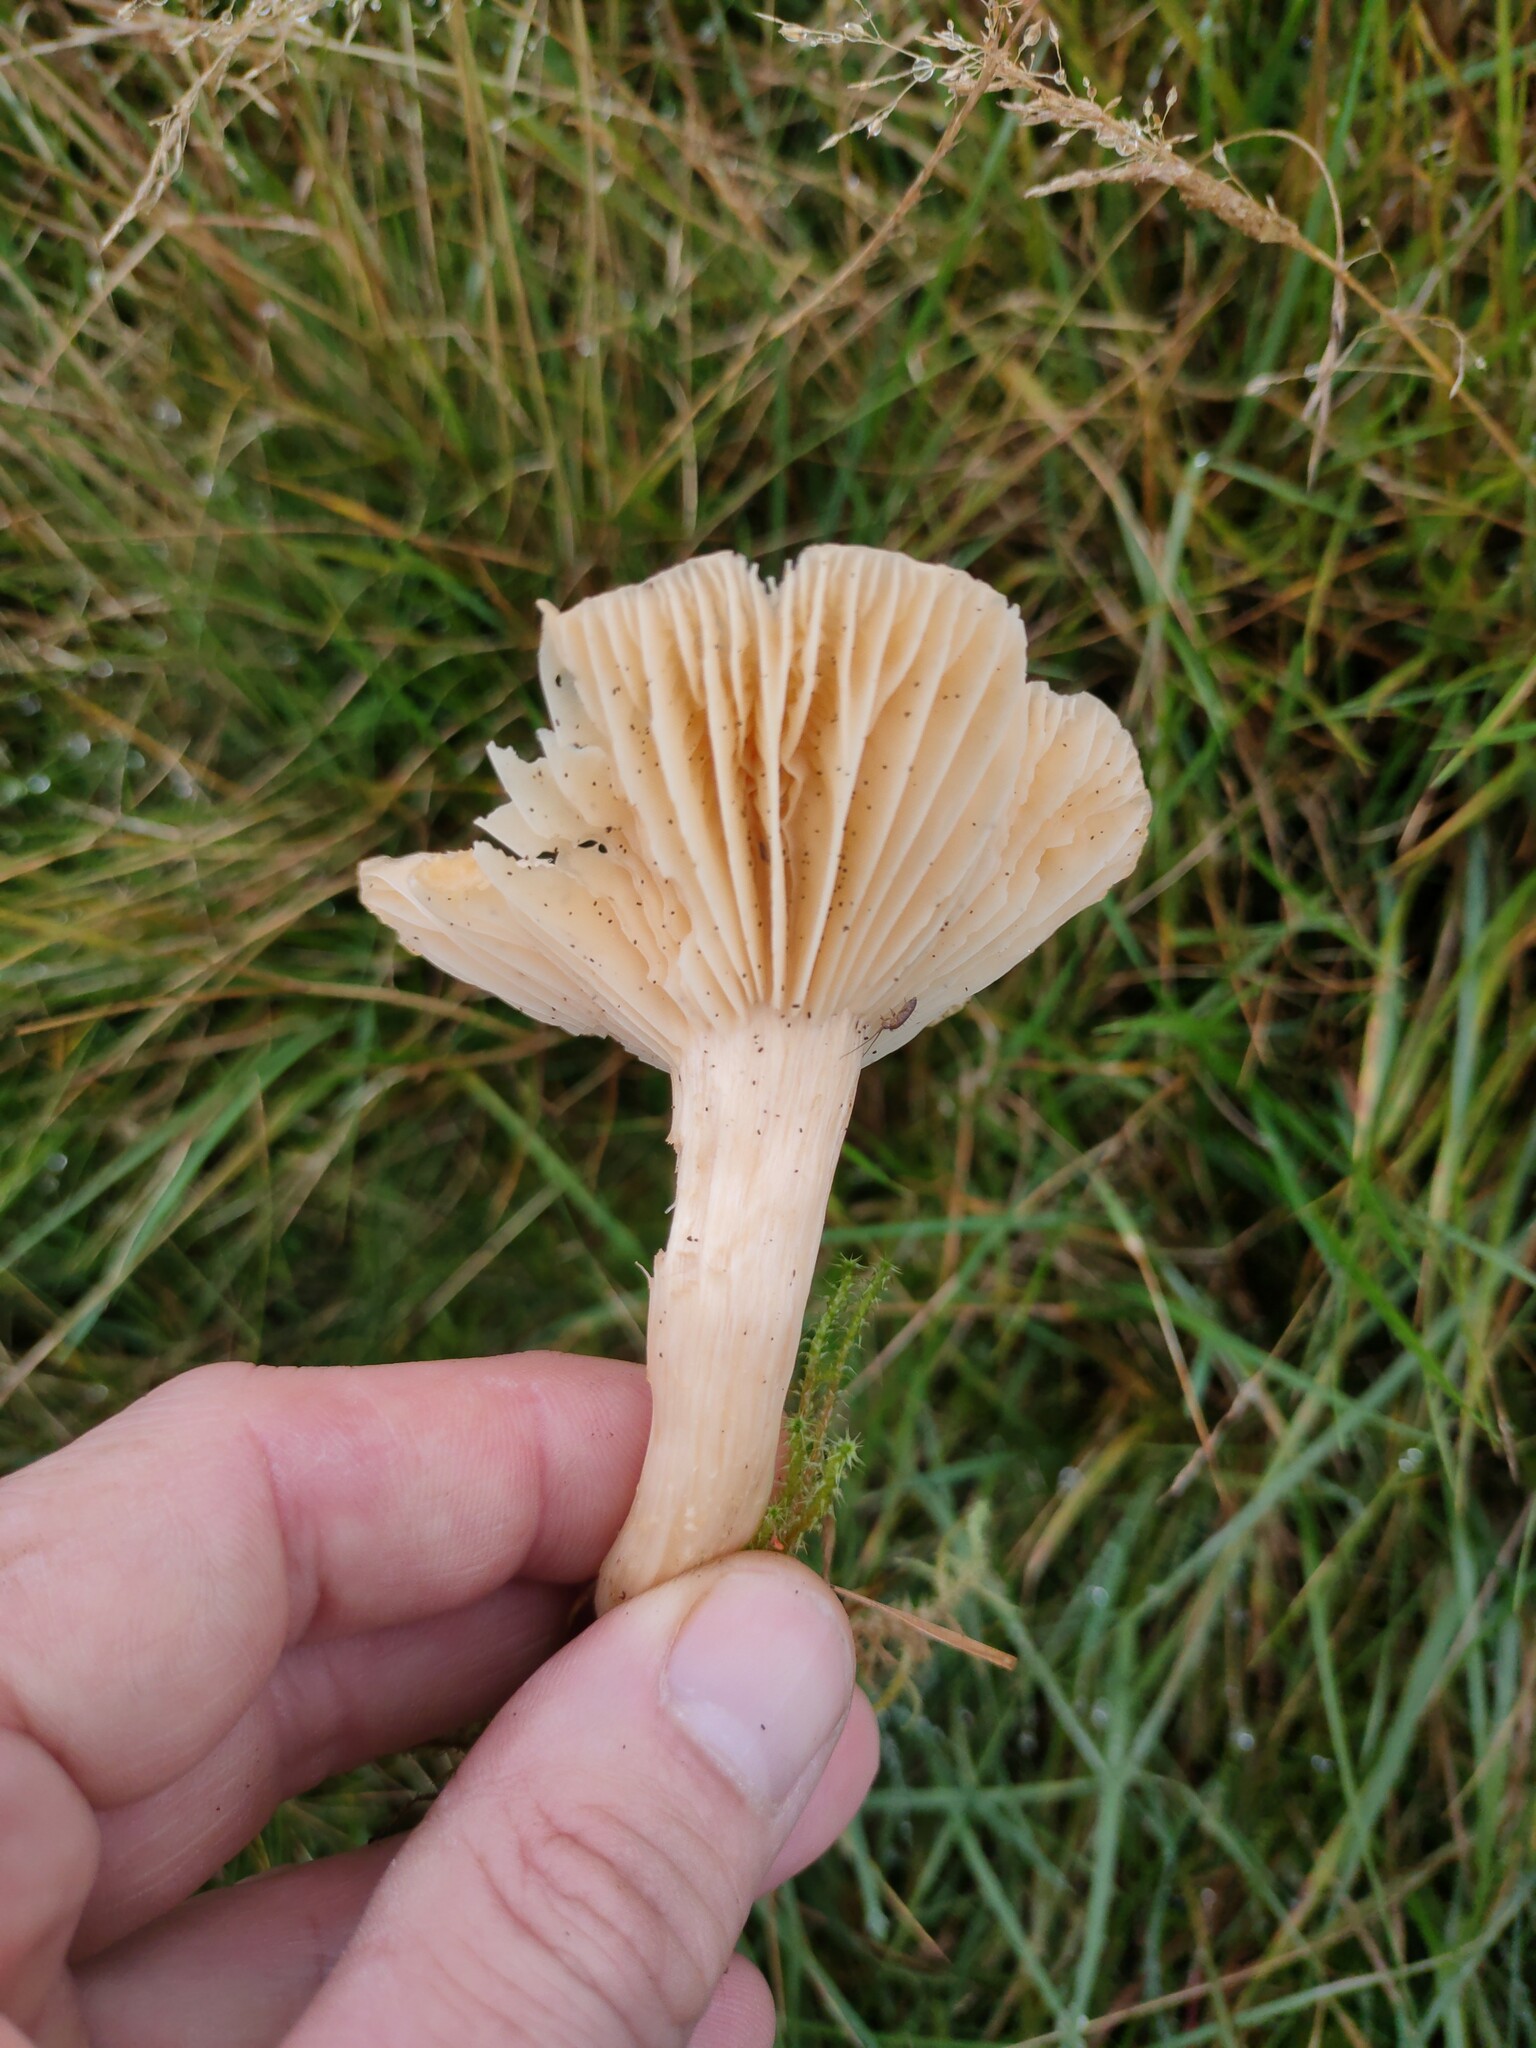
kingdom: Fungi
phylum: Basidiomycota
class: Agaricomycetes
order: Agaricales
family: Hygrophoraceae
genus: Cuphophyllus
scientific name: Cuphophyllus pratensis
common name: Meadow waxcap
